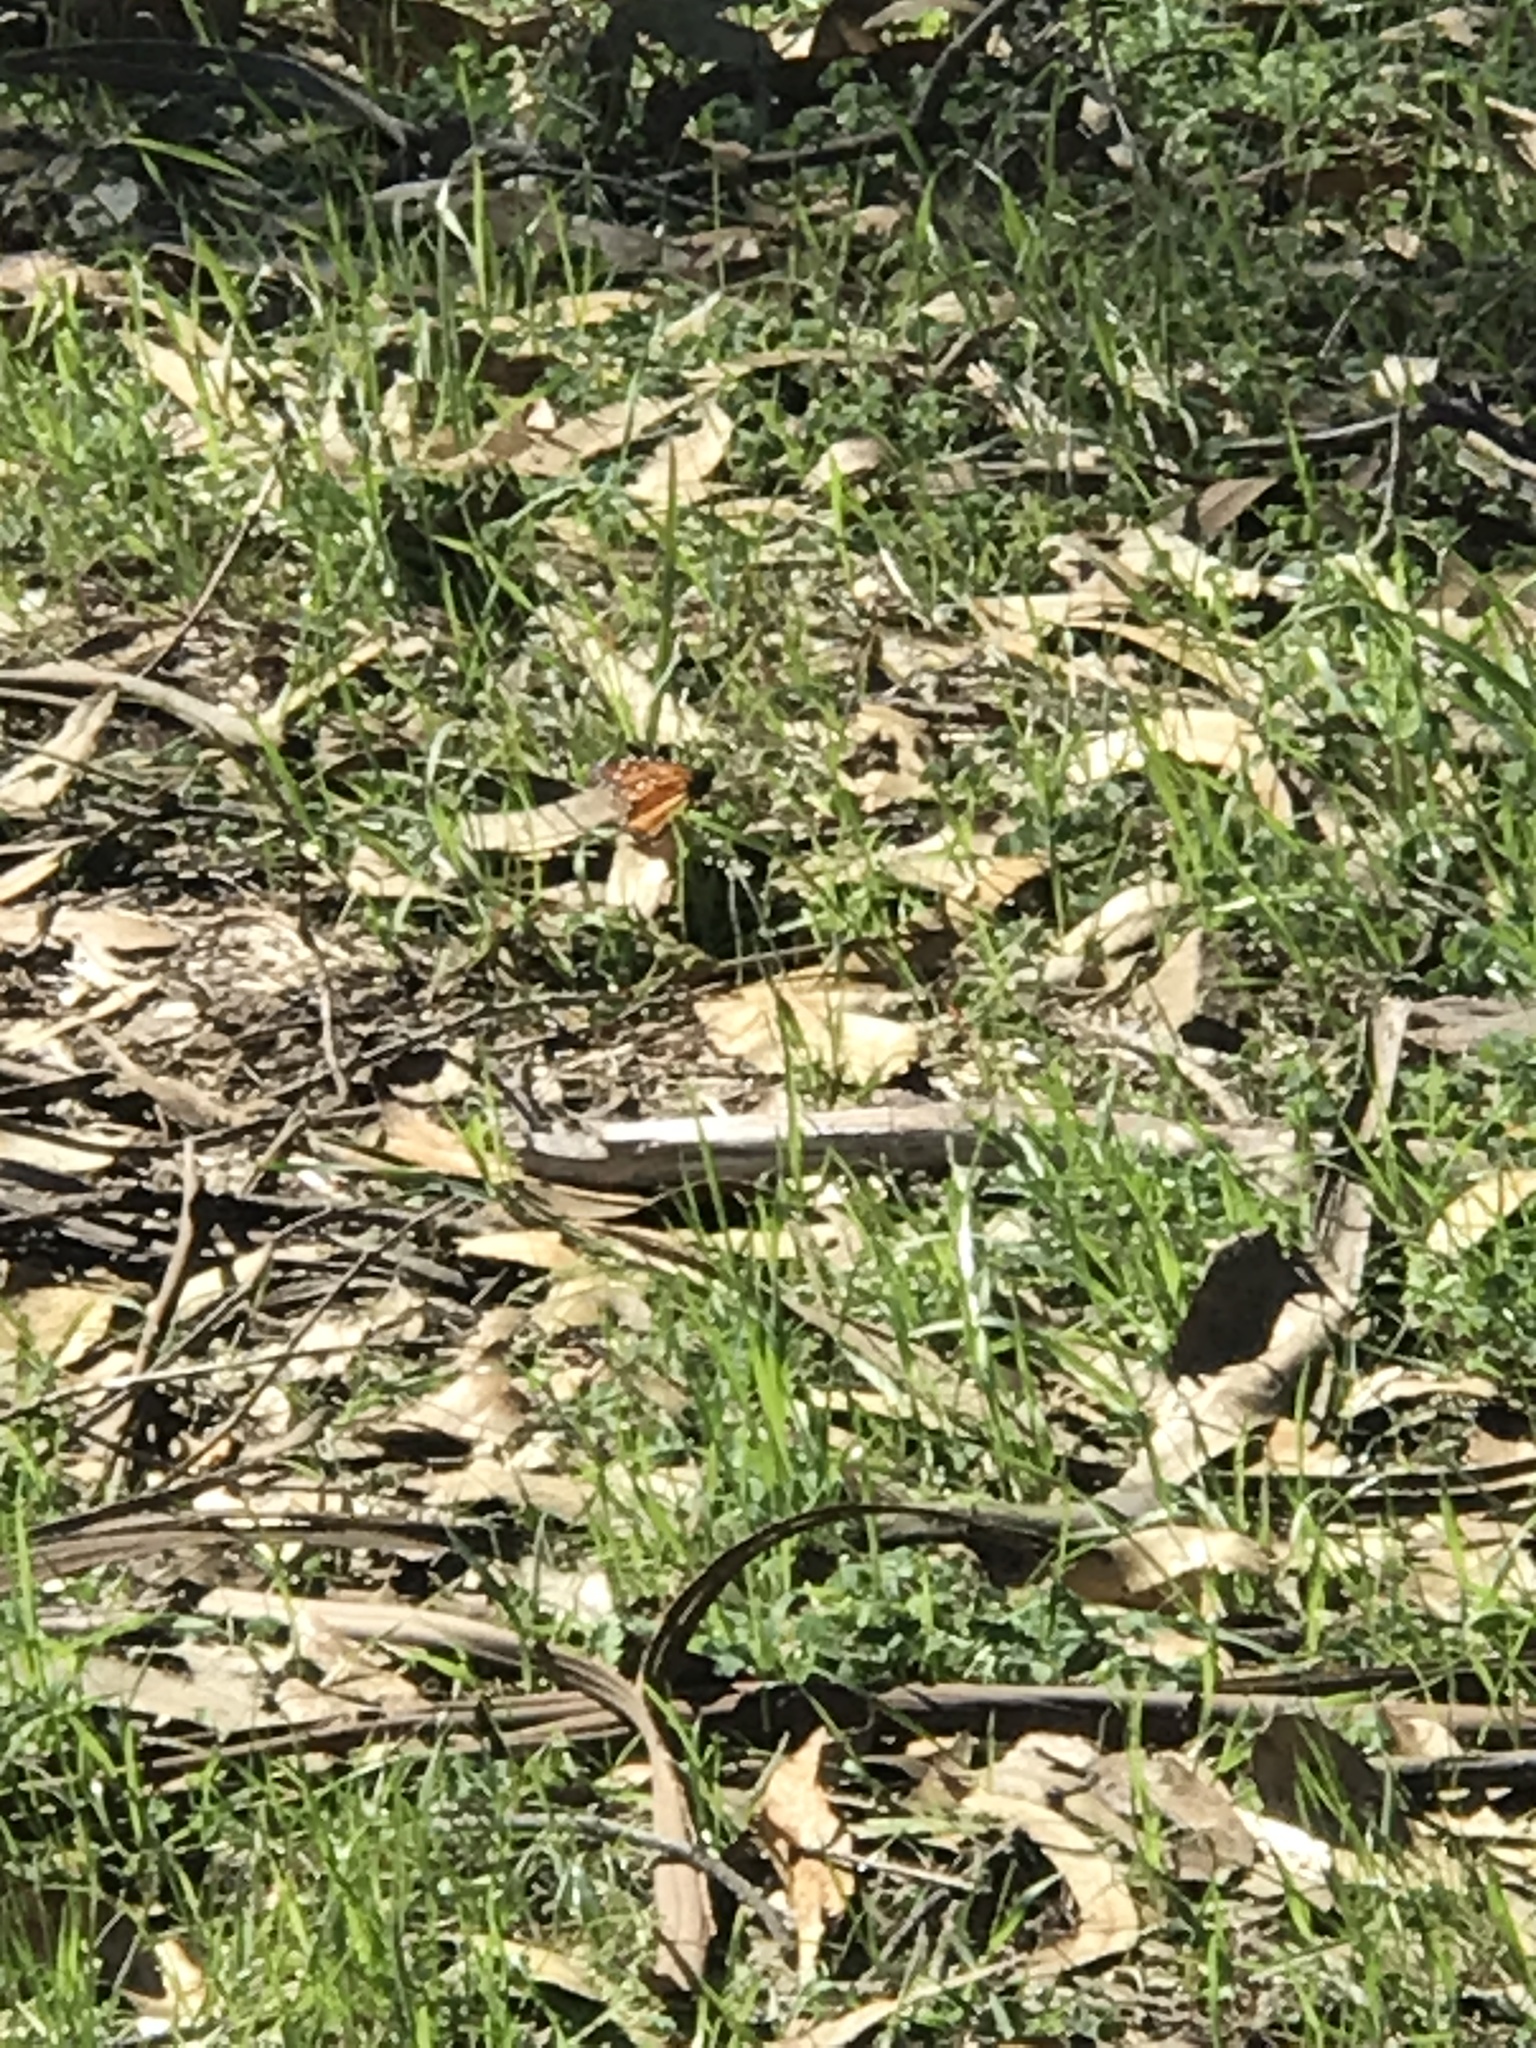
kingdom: Animalia
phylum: Arthropoda
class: Insecta
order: Lepidoptera
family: Nymphalidae
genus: Danaus
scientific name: Danaus plexippus
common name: Monarch
